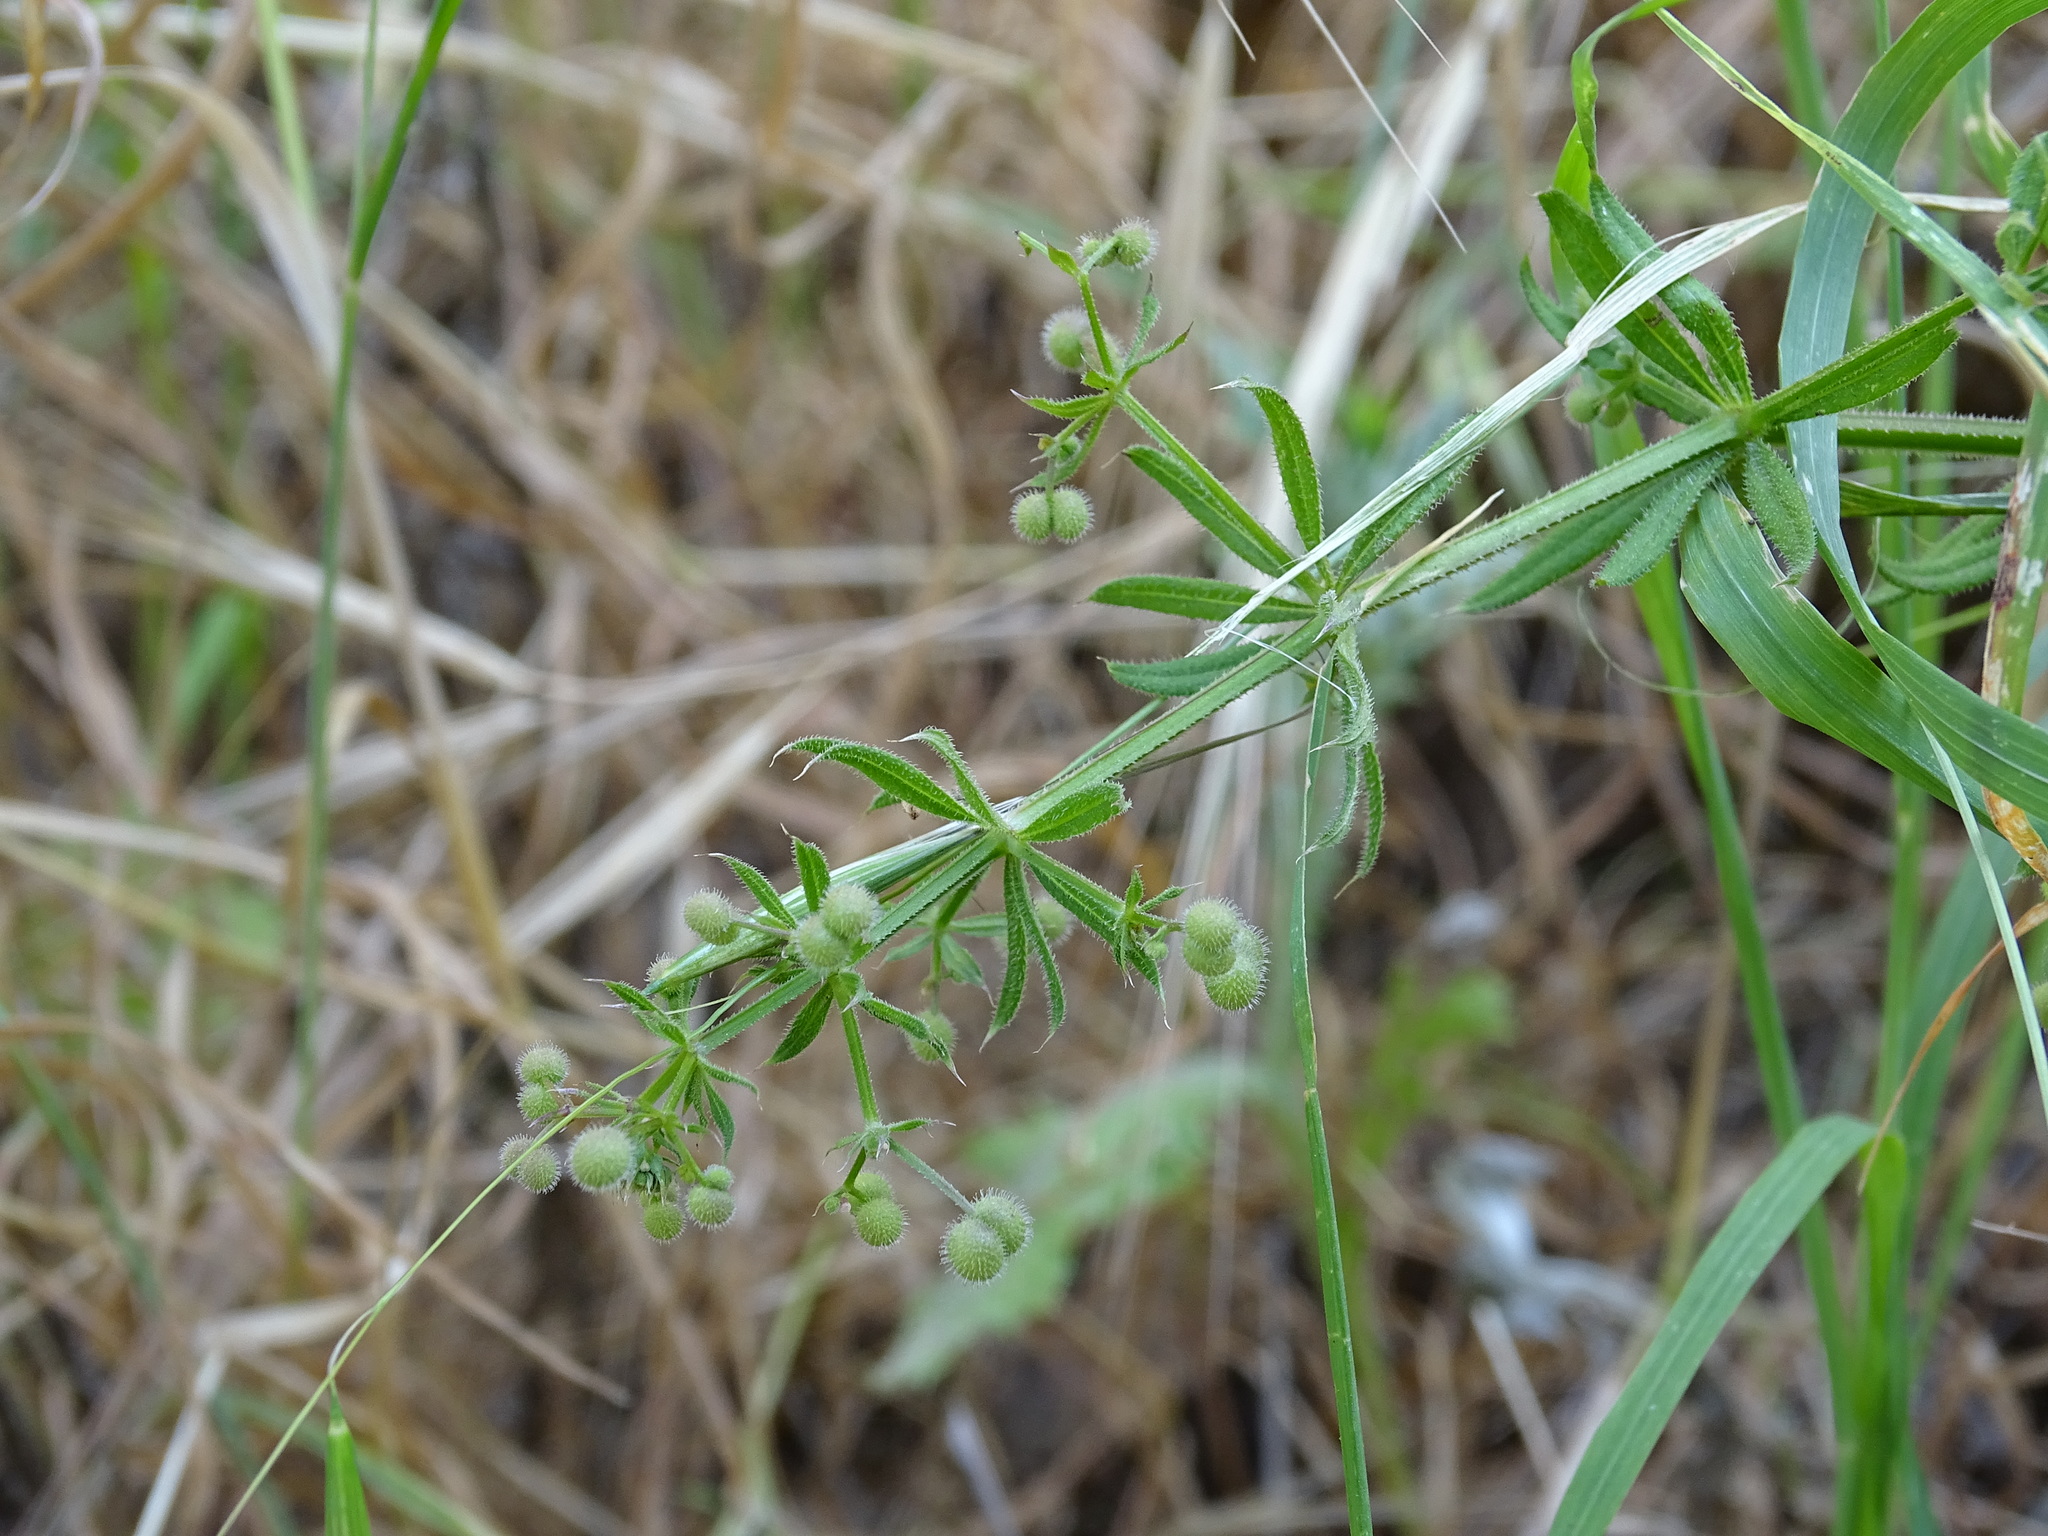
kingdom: Plantae
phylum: Tracheophyta
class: Magnoliopsida
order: Gentianales
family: Rubiaceae
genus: Galium
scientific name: Galium aparine
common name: Cleavers
